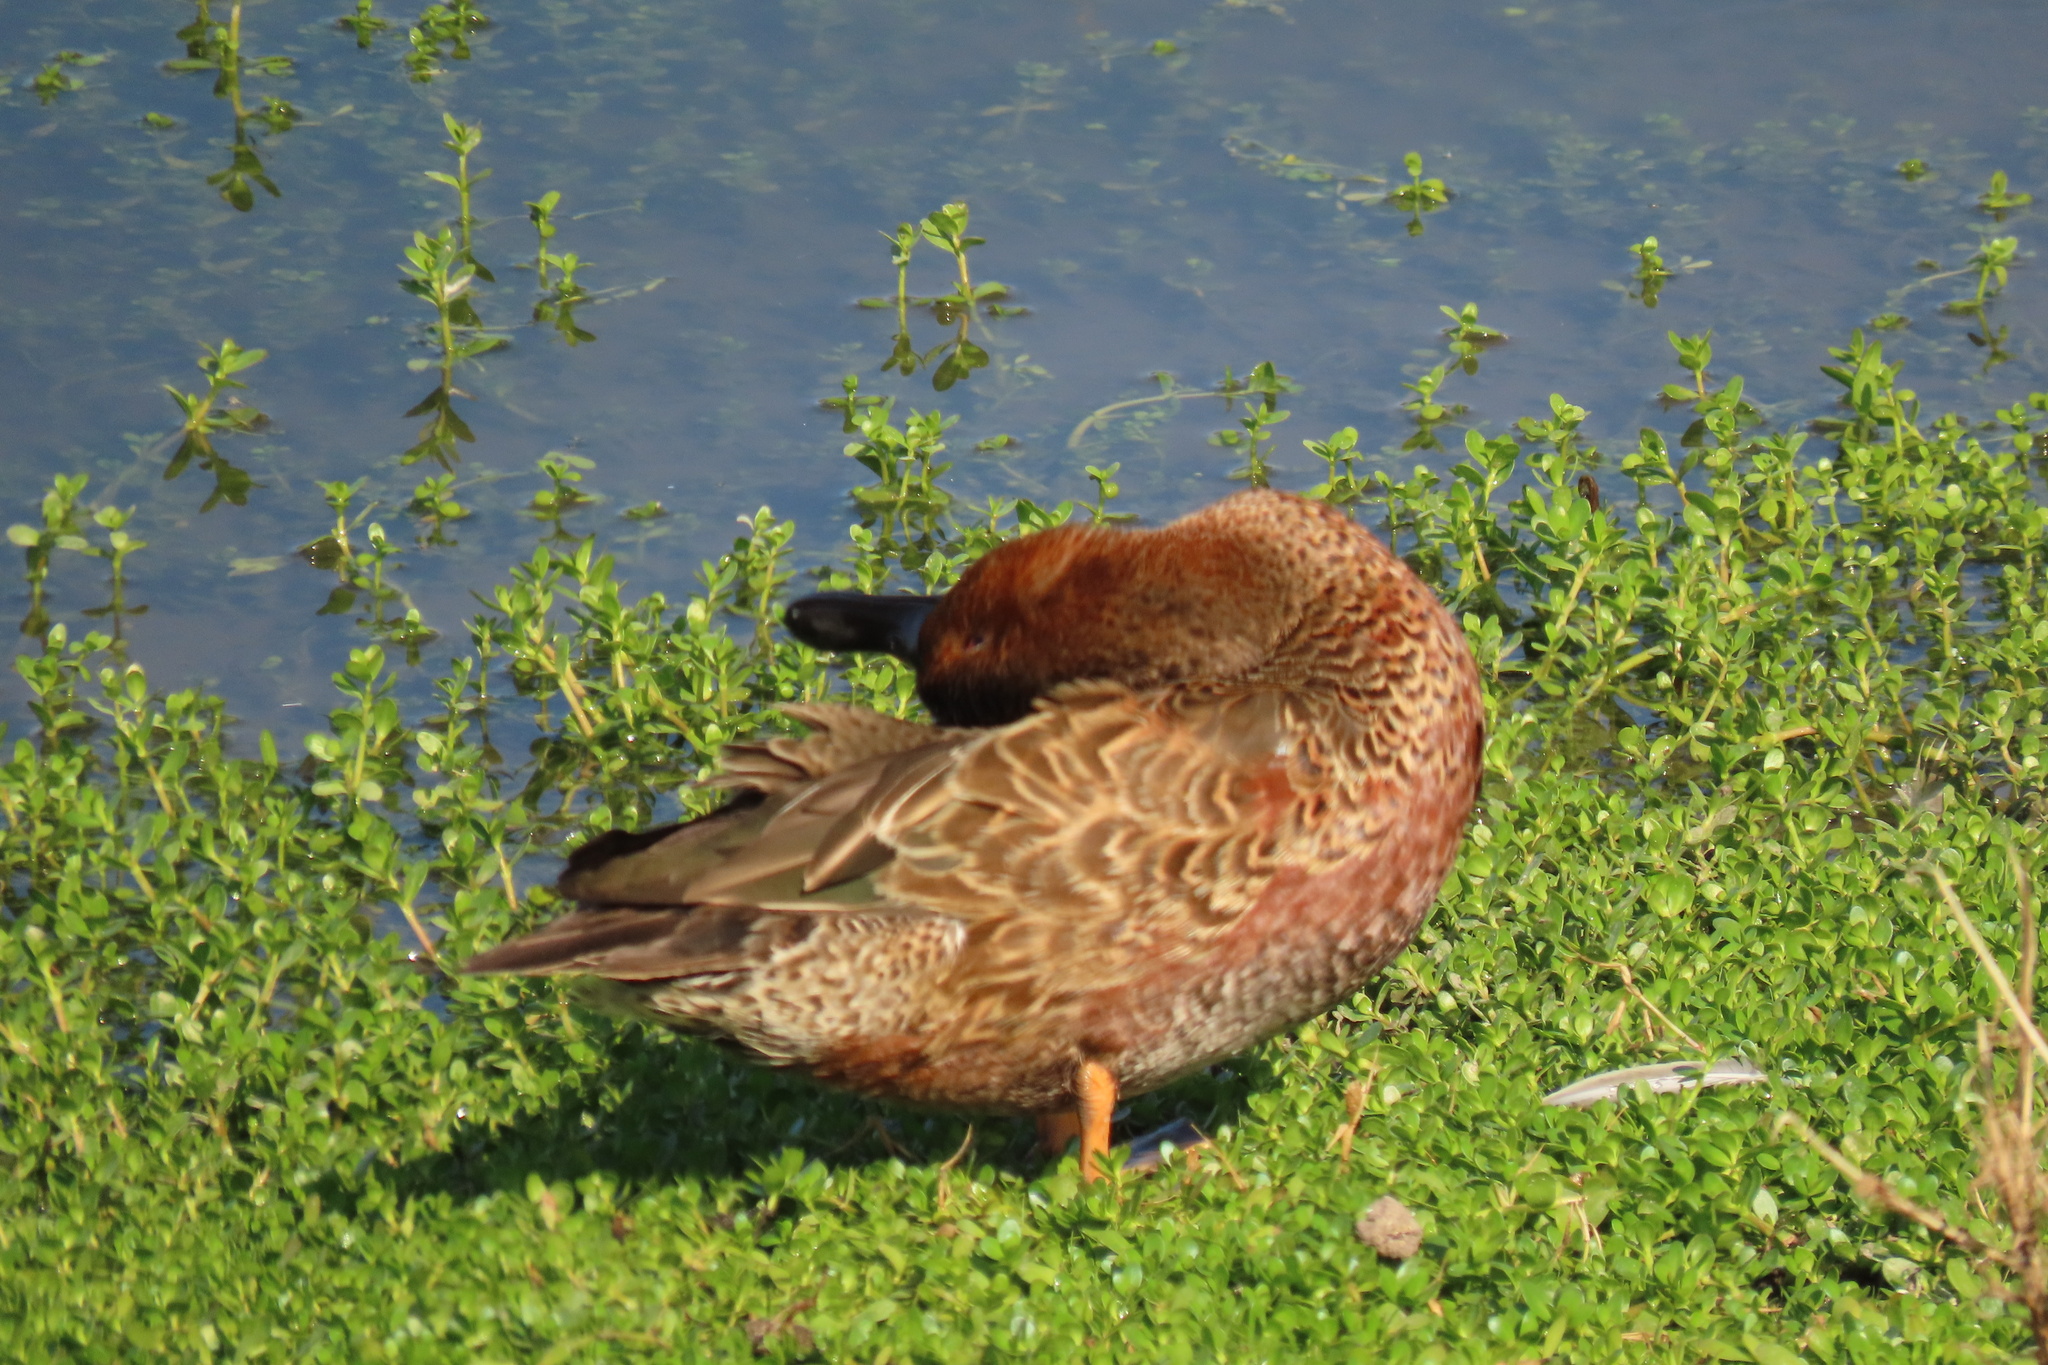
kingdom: Animalia
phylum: Chordata
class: Aves
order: Anseriformes
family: Anatidae
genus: Spatula
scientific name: Spatula cyanoptera
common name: Cinnamon teal
